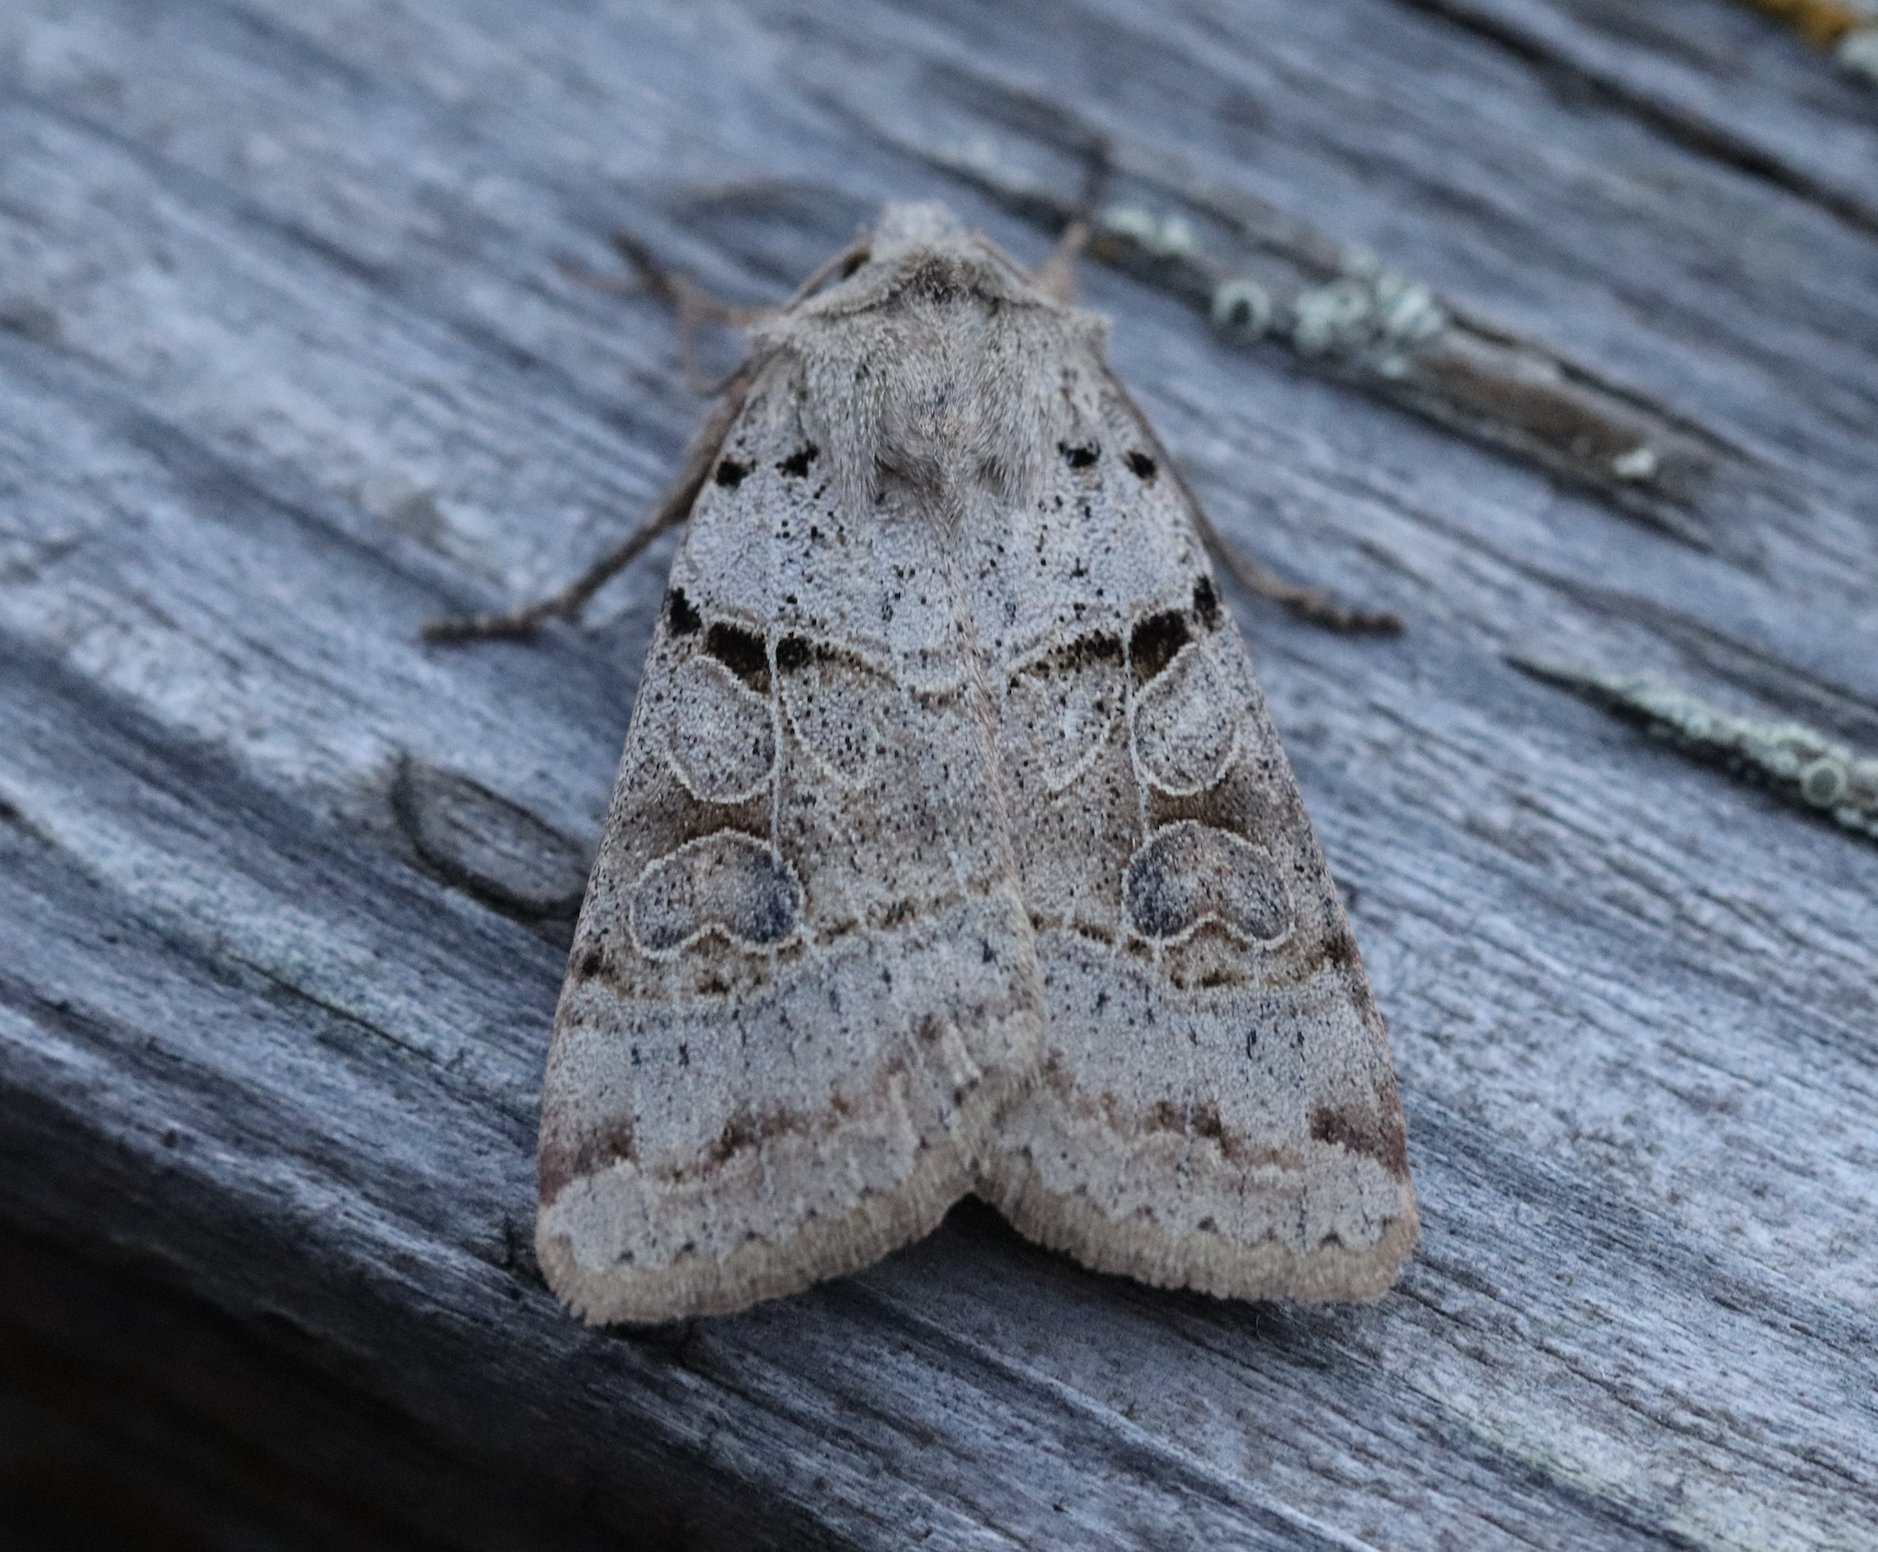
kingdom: Animalia
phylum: Arthropoda
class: Insecta
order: Lepidoptera
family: Noctuidae
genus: Eugnorisma
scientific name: Eugnorisma depuncta
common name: Plain clay
